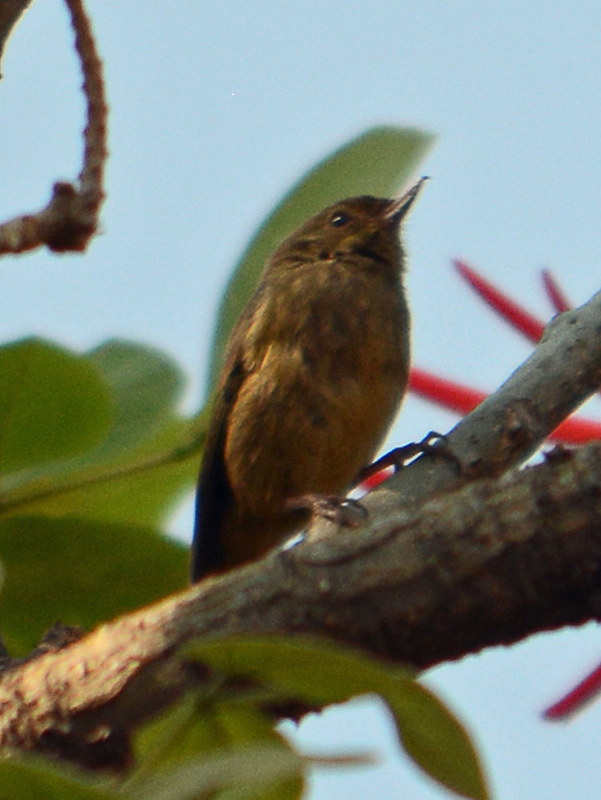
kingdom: Animalia
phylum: Chordata
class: Aves
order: Passeriformes
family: Thraupidae
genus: Diglossa
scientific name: Diglossa baritula
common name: Cinnamon-bellied flowerpiercer
